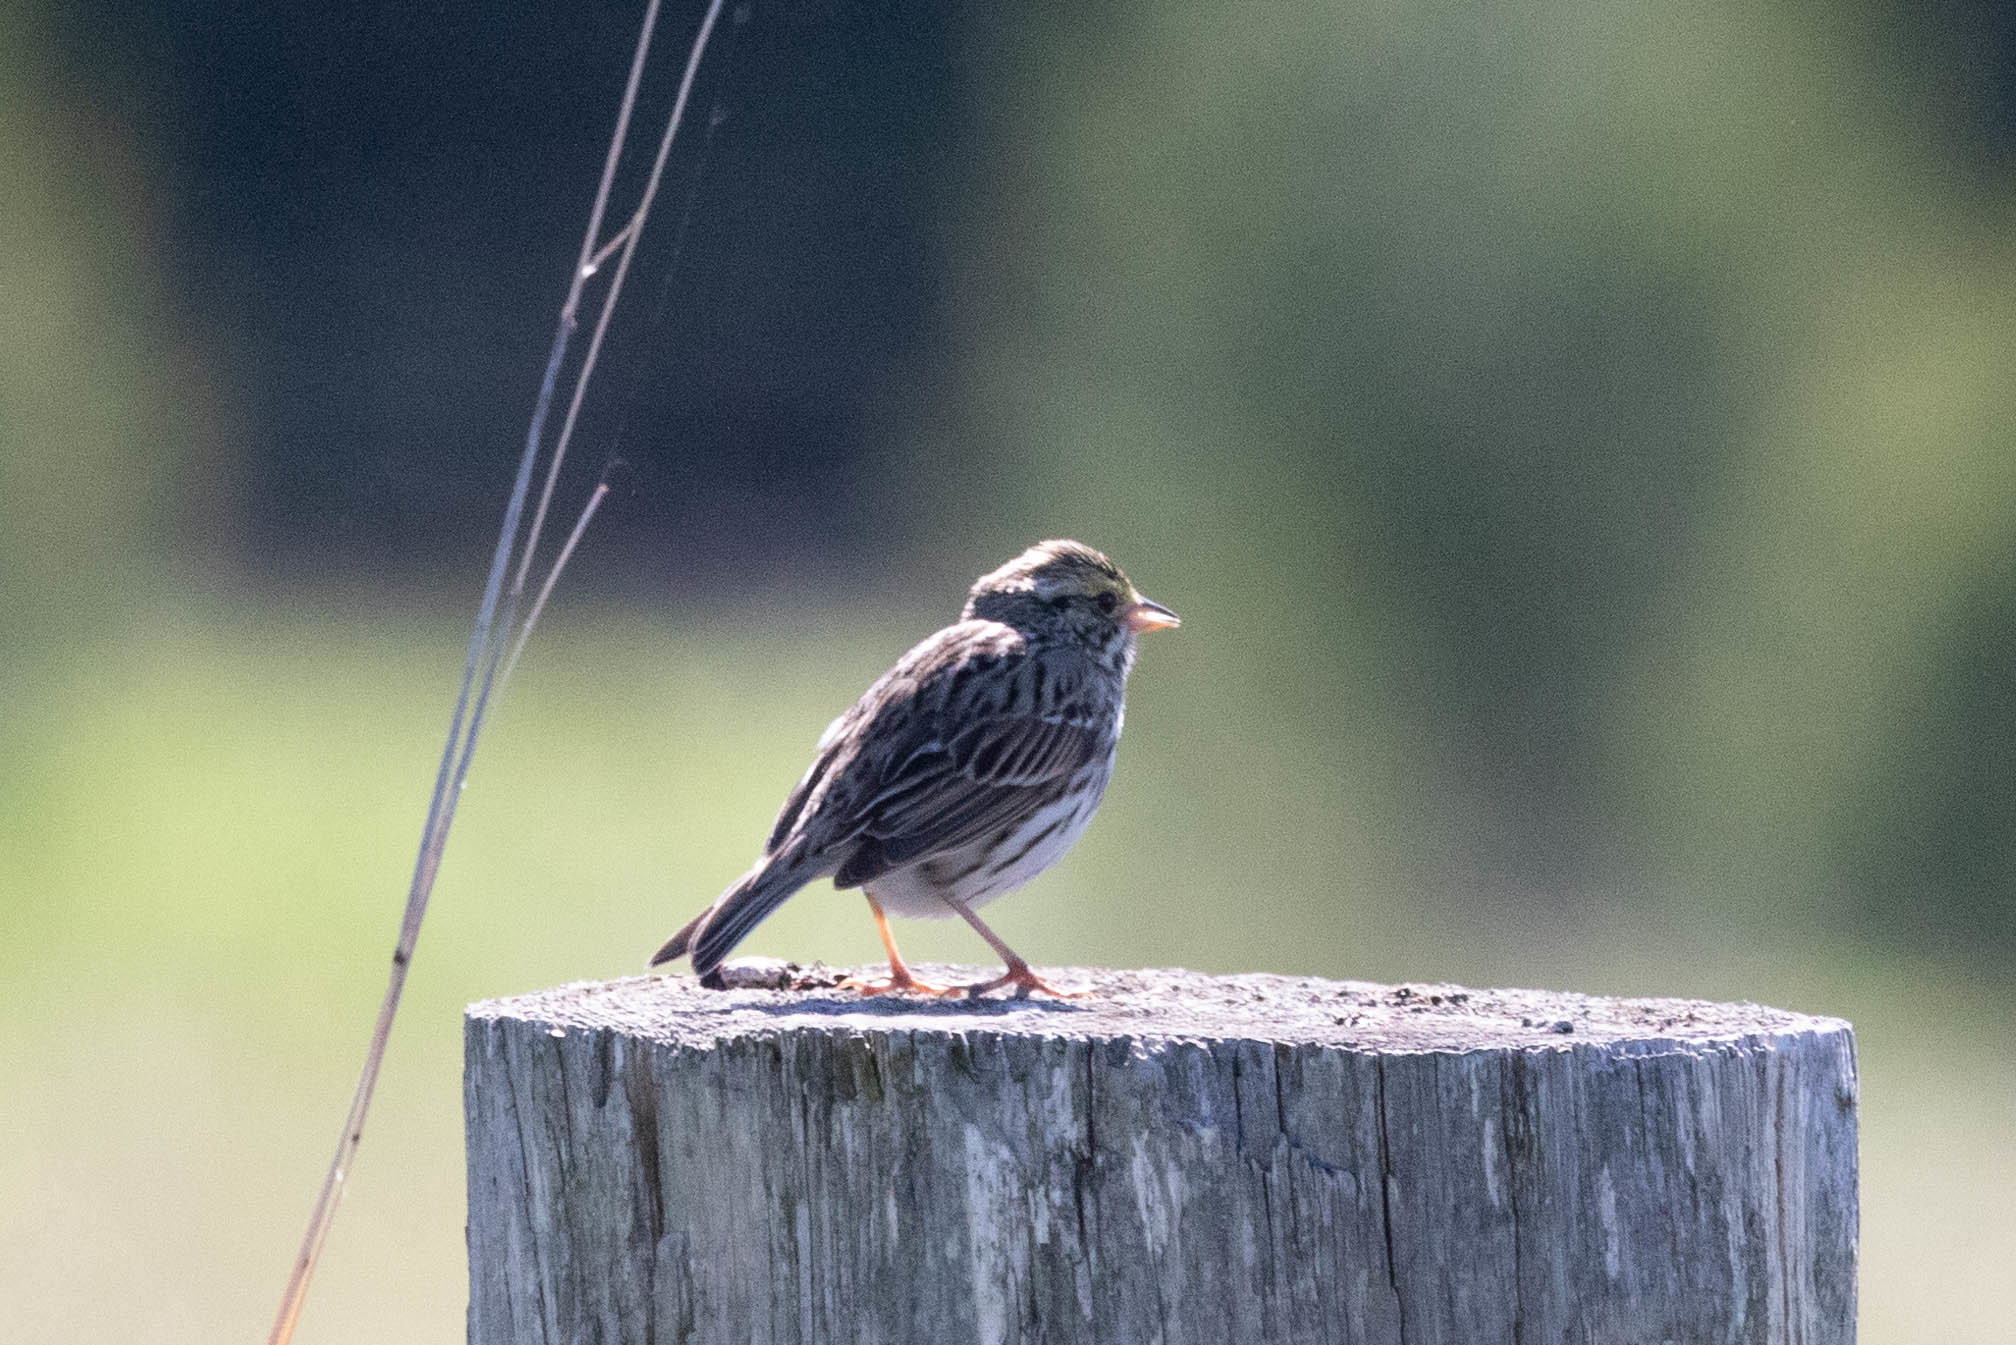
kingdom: Animalia
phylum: Chordata
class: Aves
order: Passeriformes
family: Passerellidae
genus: Passerculus
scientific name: Passerculus sandwichensis
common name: Savannah sparrow
